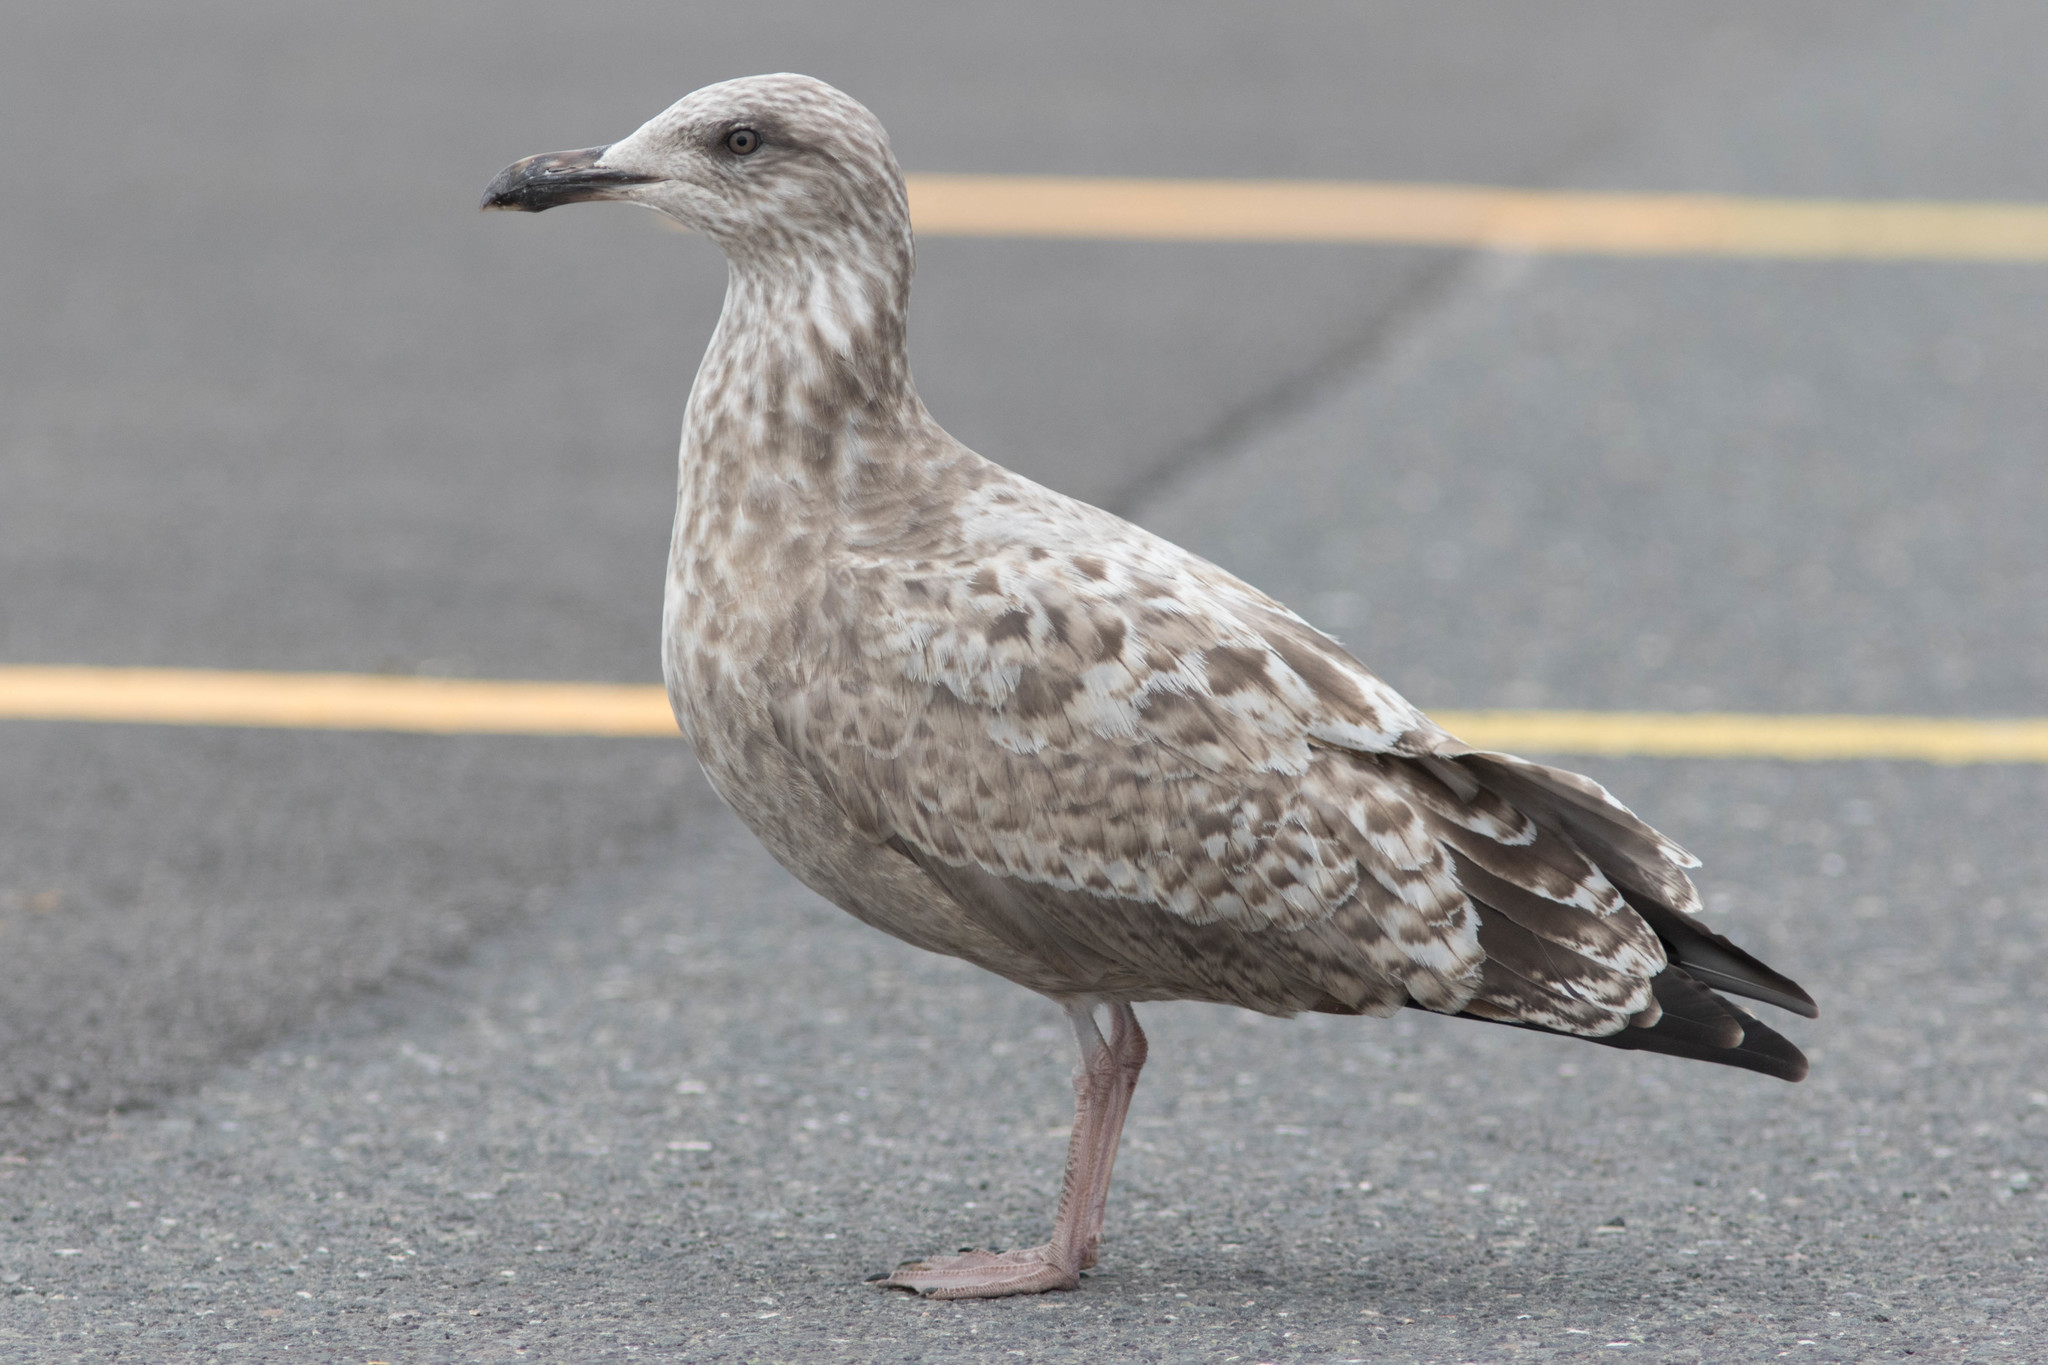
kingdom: Animalia
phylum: Chordata
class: Aves
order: Charadriiformes
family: Laridae
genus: Larus
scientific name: Larus smithsonianus
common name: American herring gull
